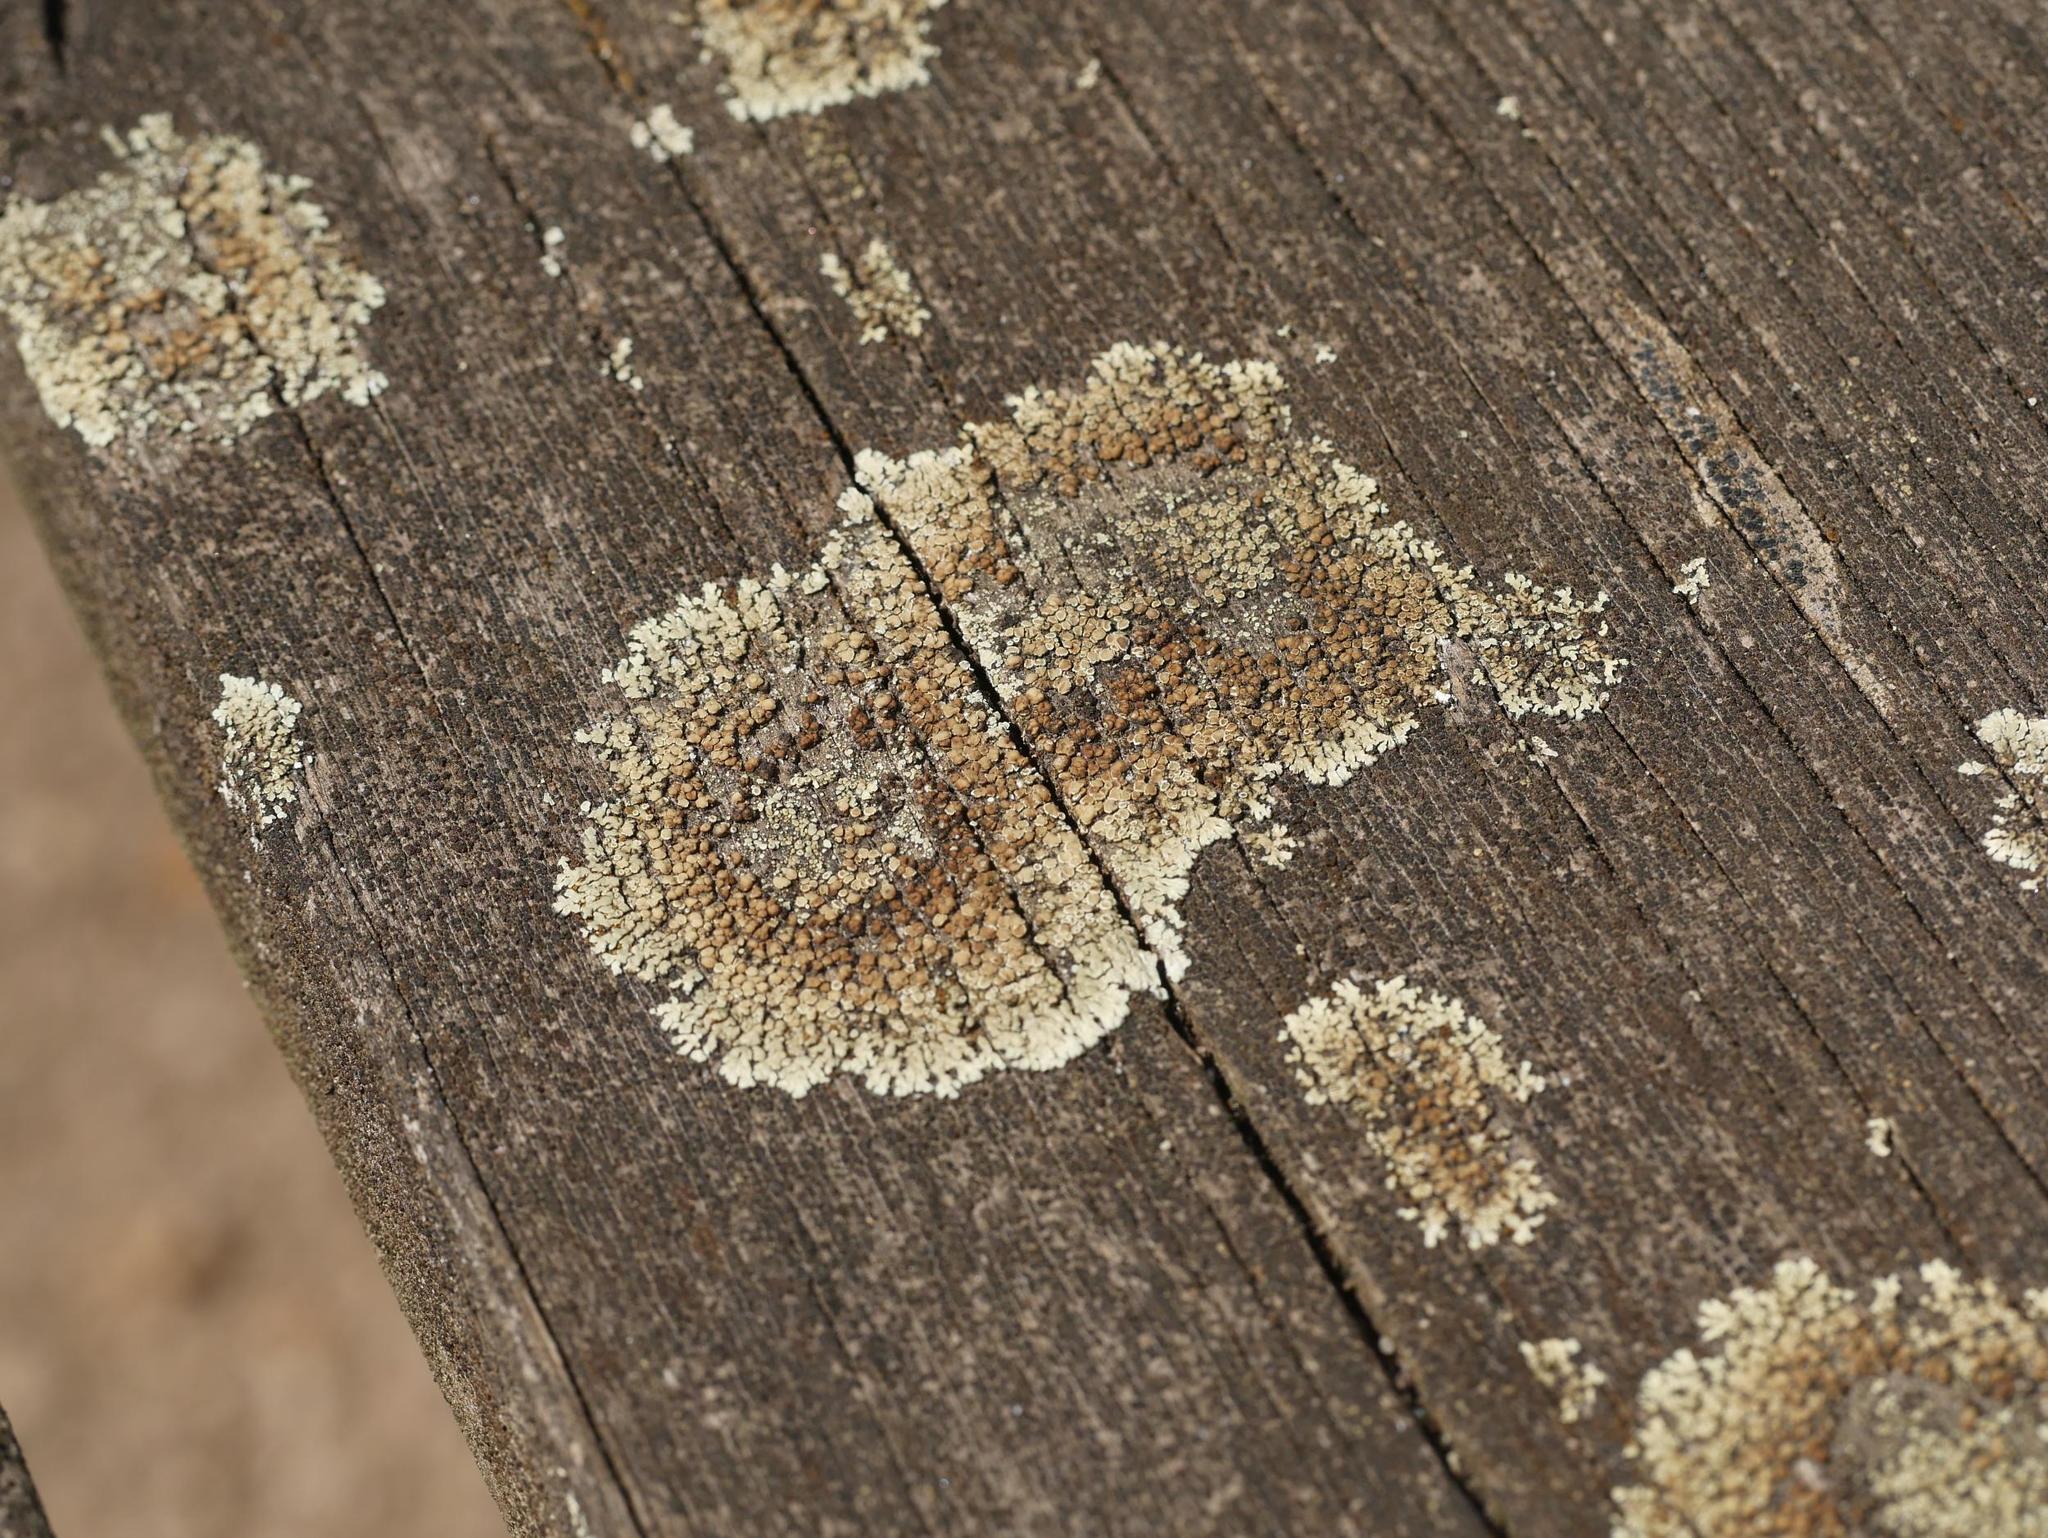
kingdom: Fungi
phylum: Ascomycota
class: Lecanoromycetes
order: Lecanorales
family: Lecanoraceae
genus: Protoparmeliopsis
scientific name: Protoparmeliopsis muralis
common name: Stonewall rim lichen
